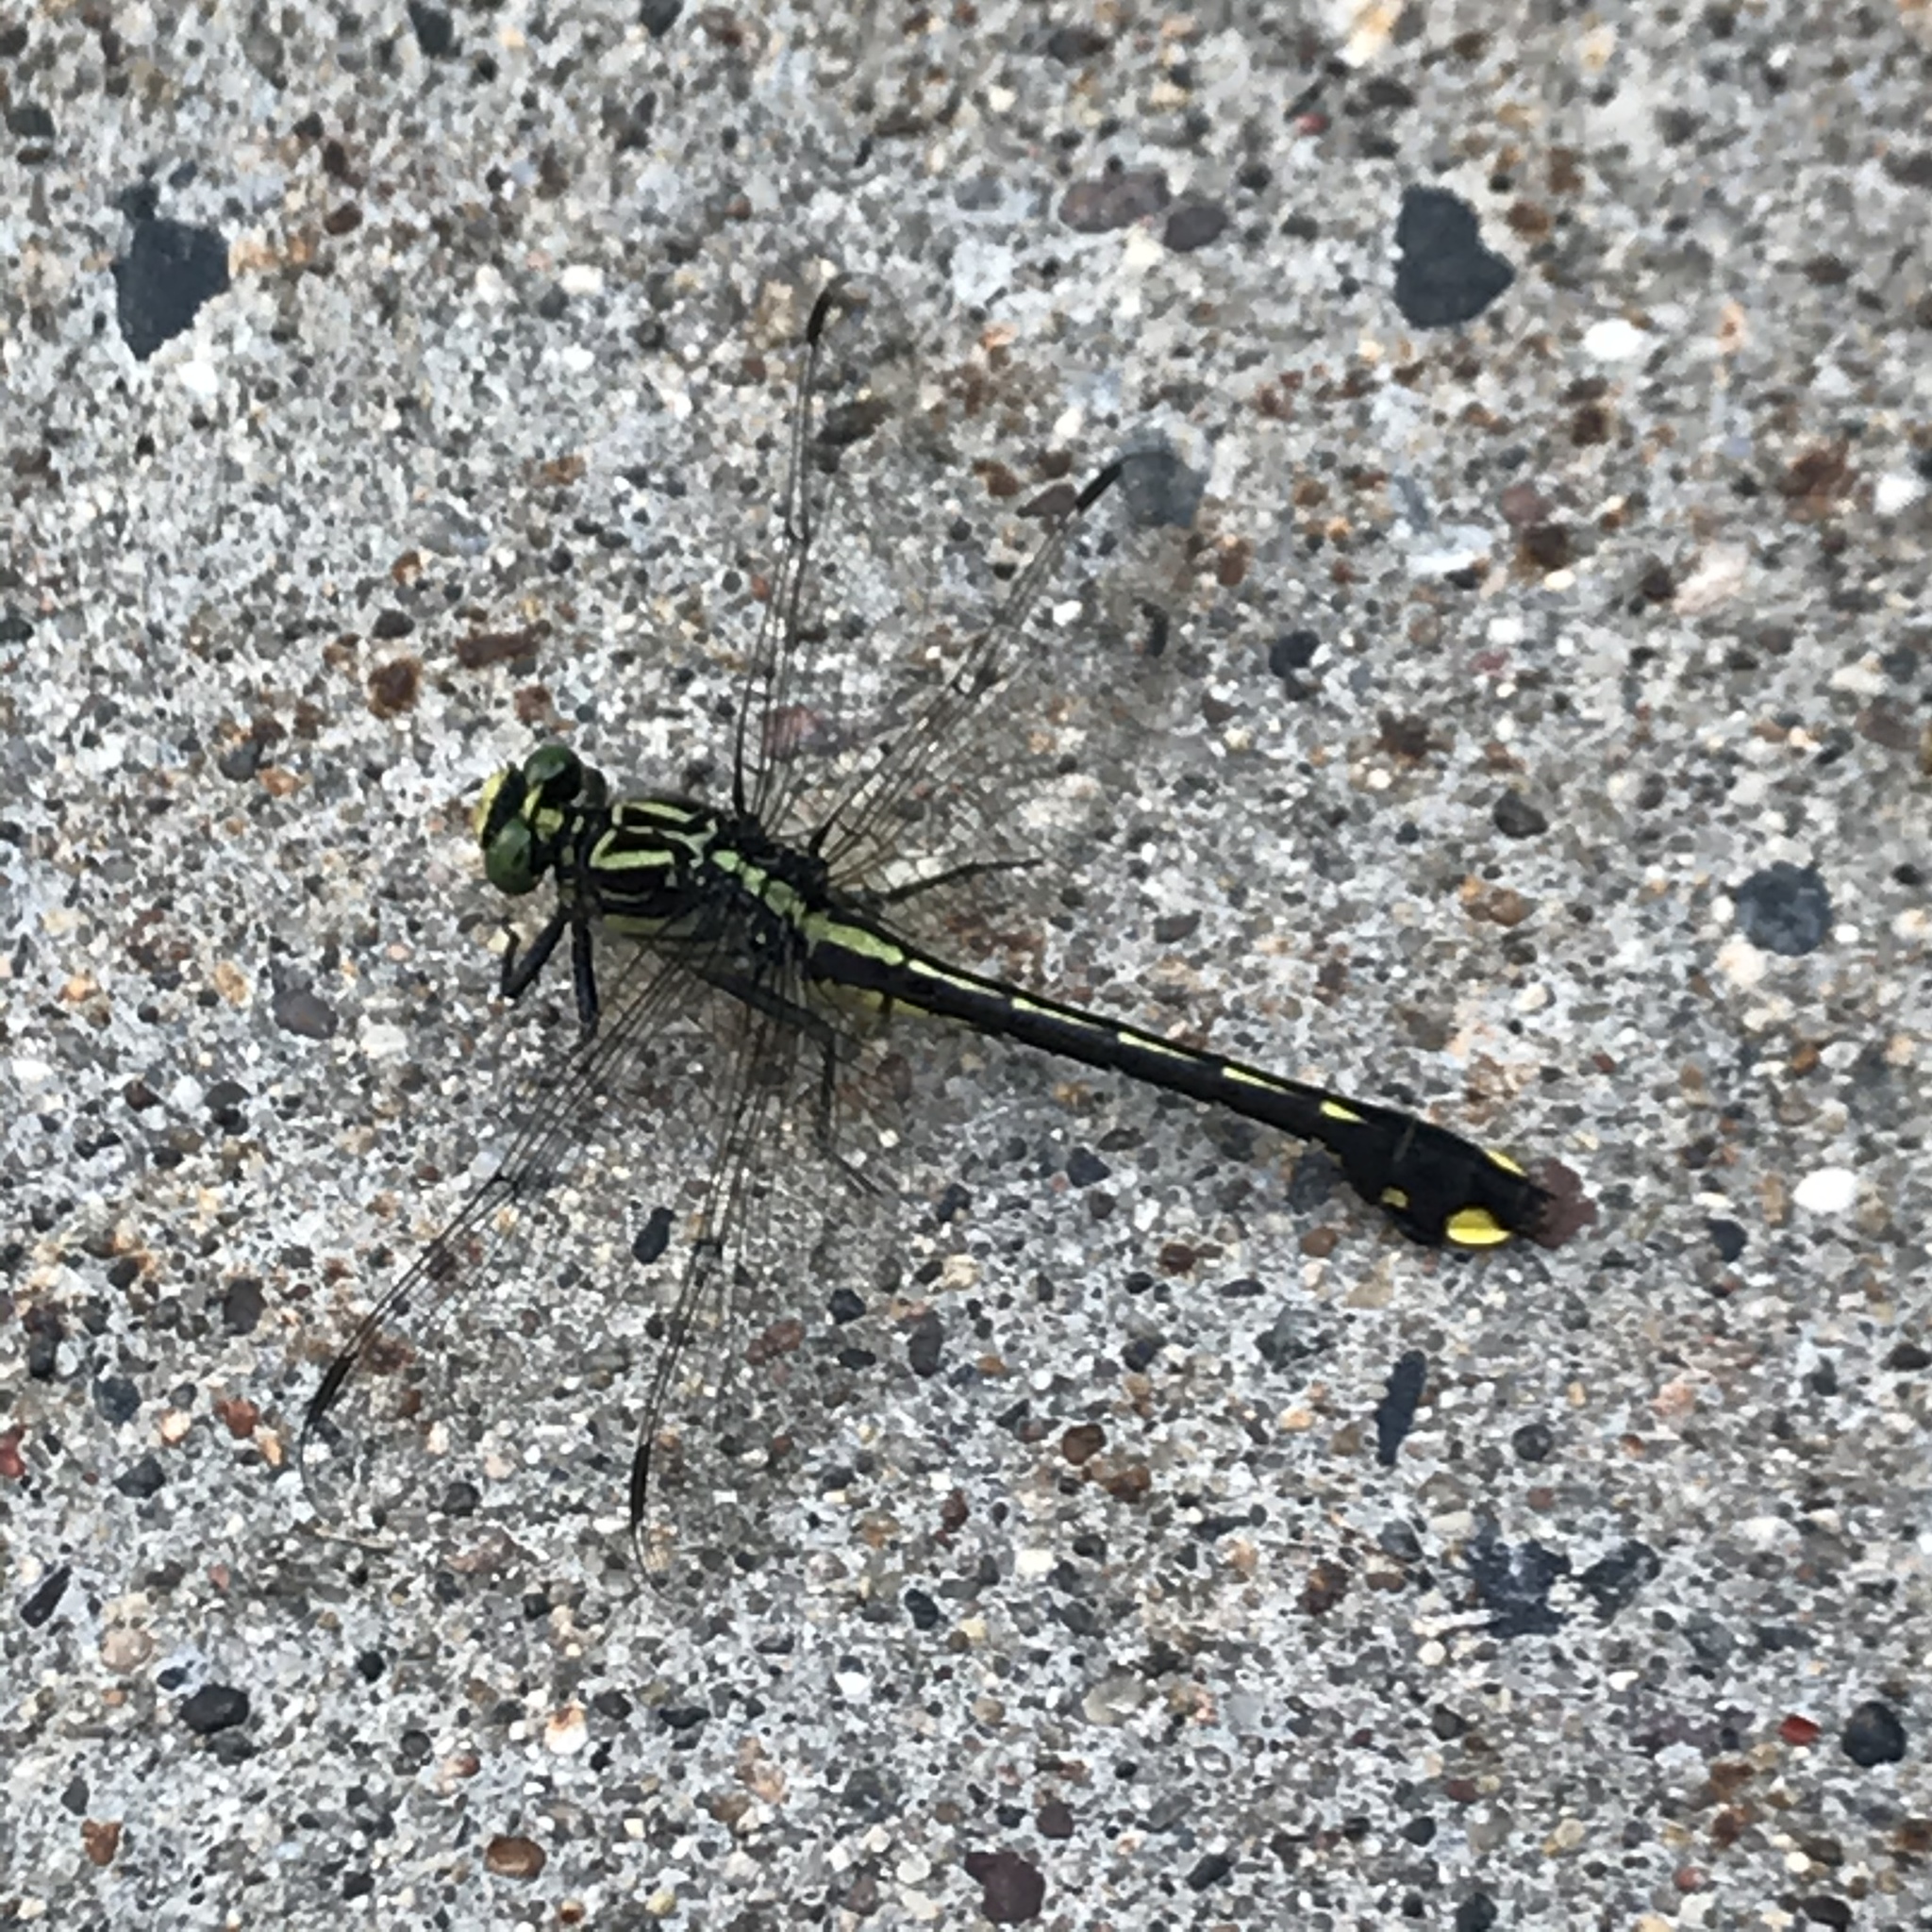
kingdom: Animalia
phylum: Arthropoda
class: Insecta
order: Odonata
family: Gomphidae
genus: Gomphurus
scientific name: Gomphurus vastus
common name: Cobra clubtail
